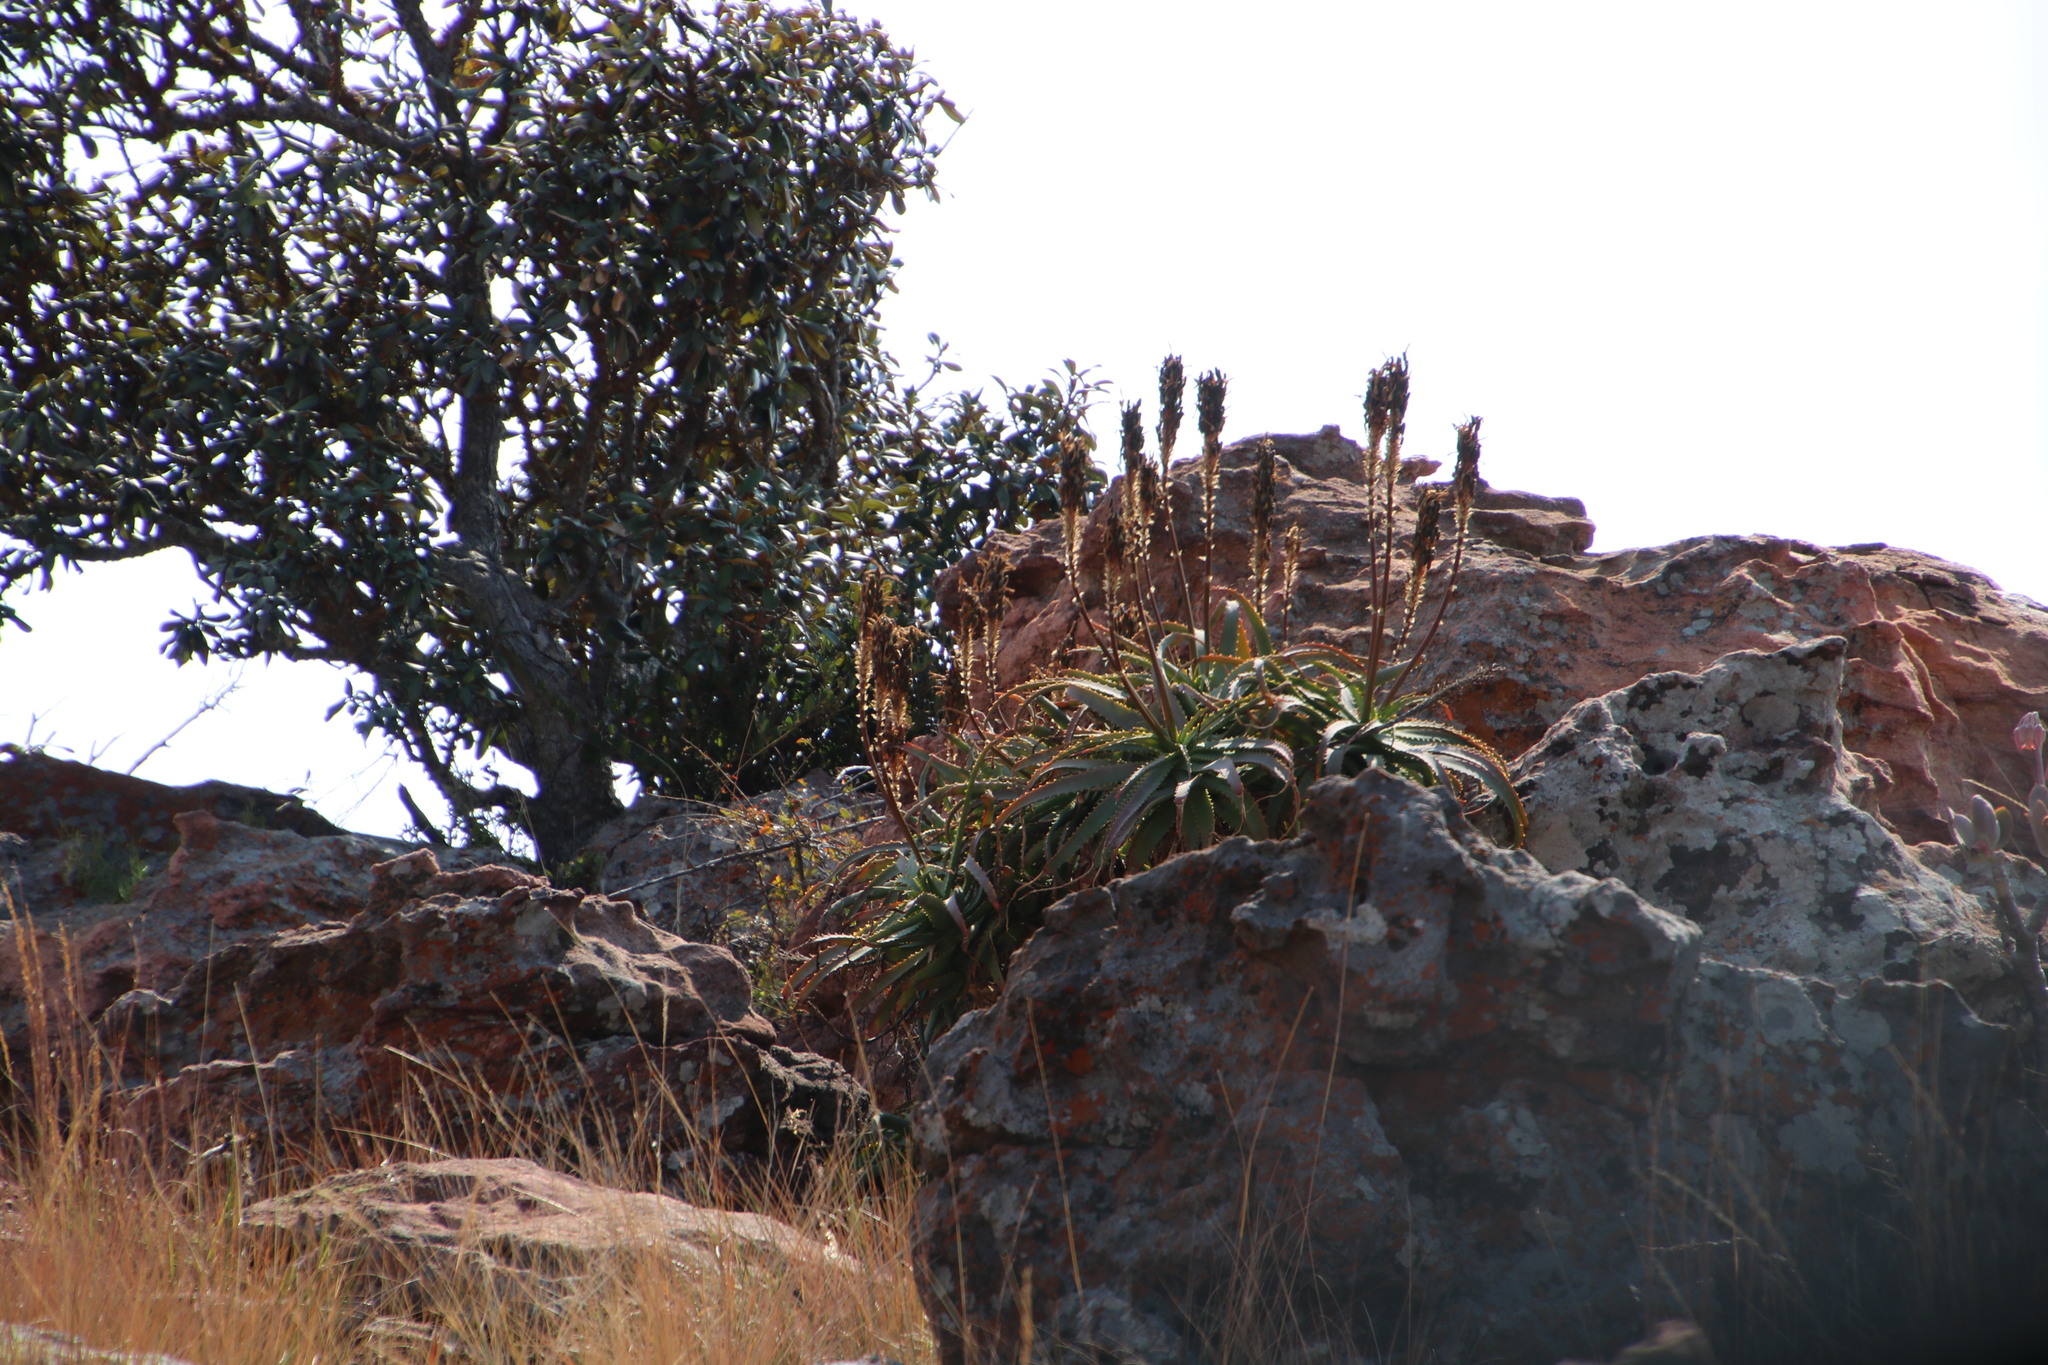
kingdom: Plantae
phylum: Tracheophyta
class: Liliopsida
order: Asparagales
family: Asphodelaceae
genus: Aloe
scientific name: Aloe arborescens
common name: Candelabra aloe
